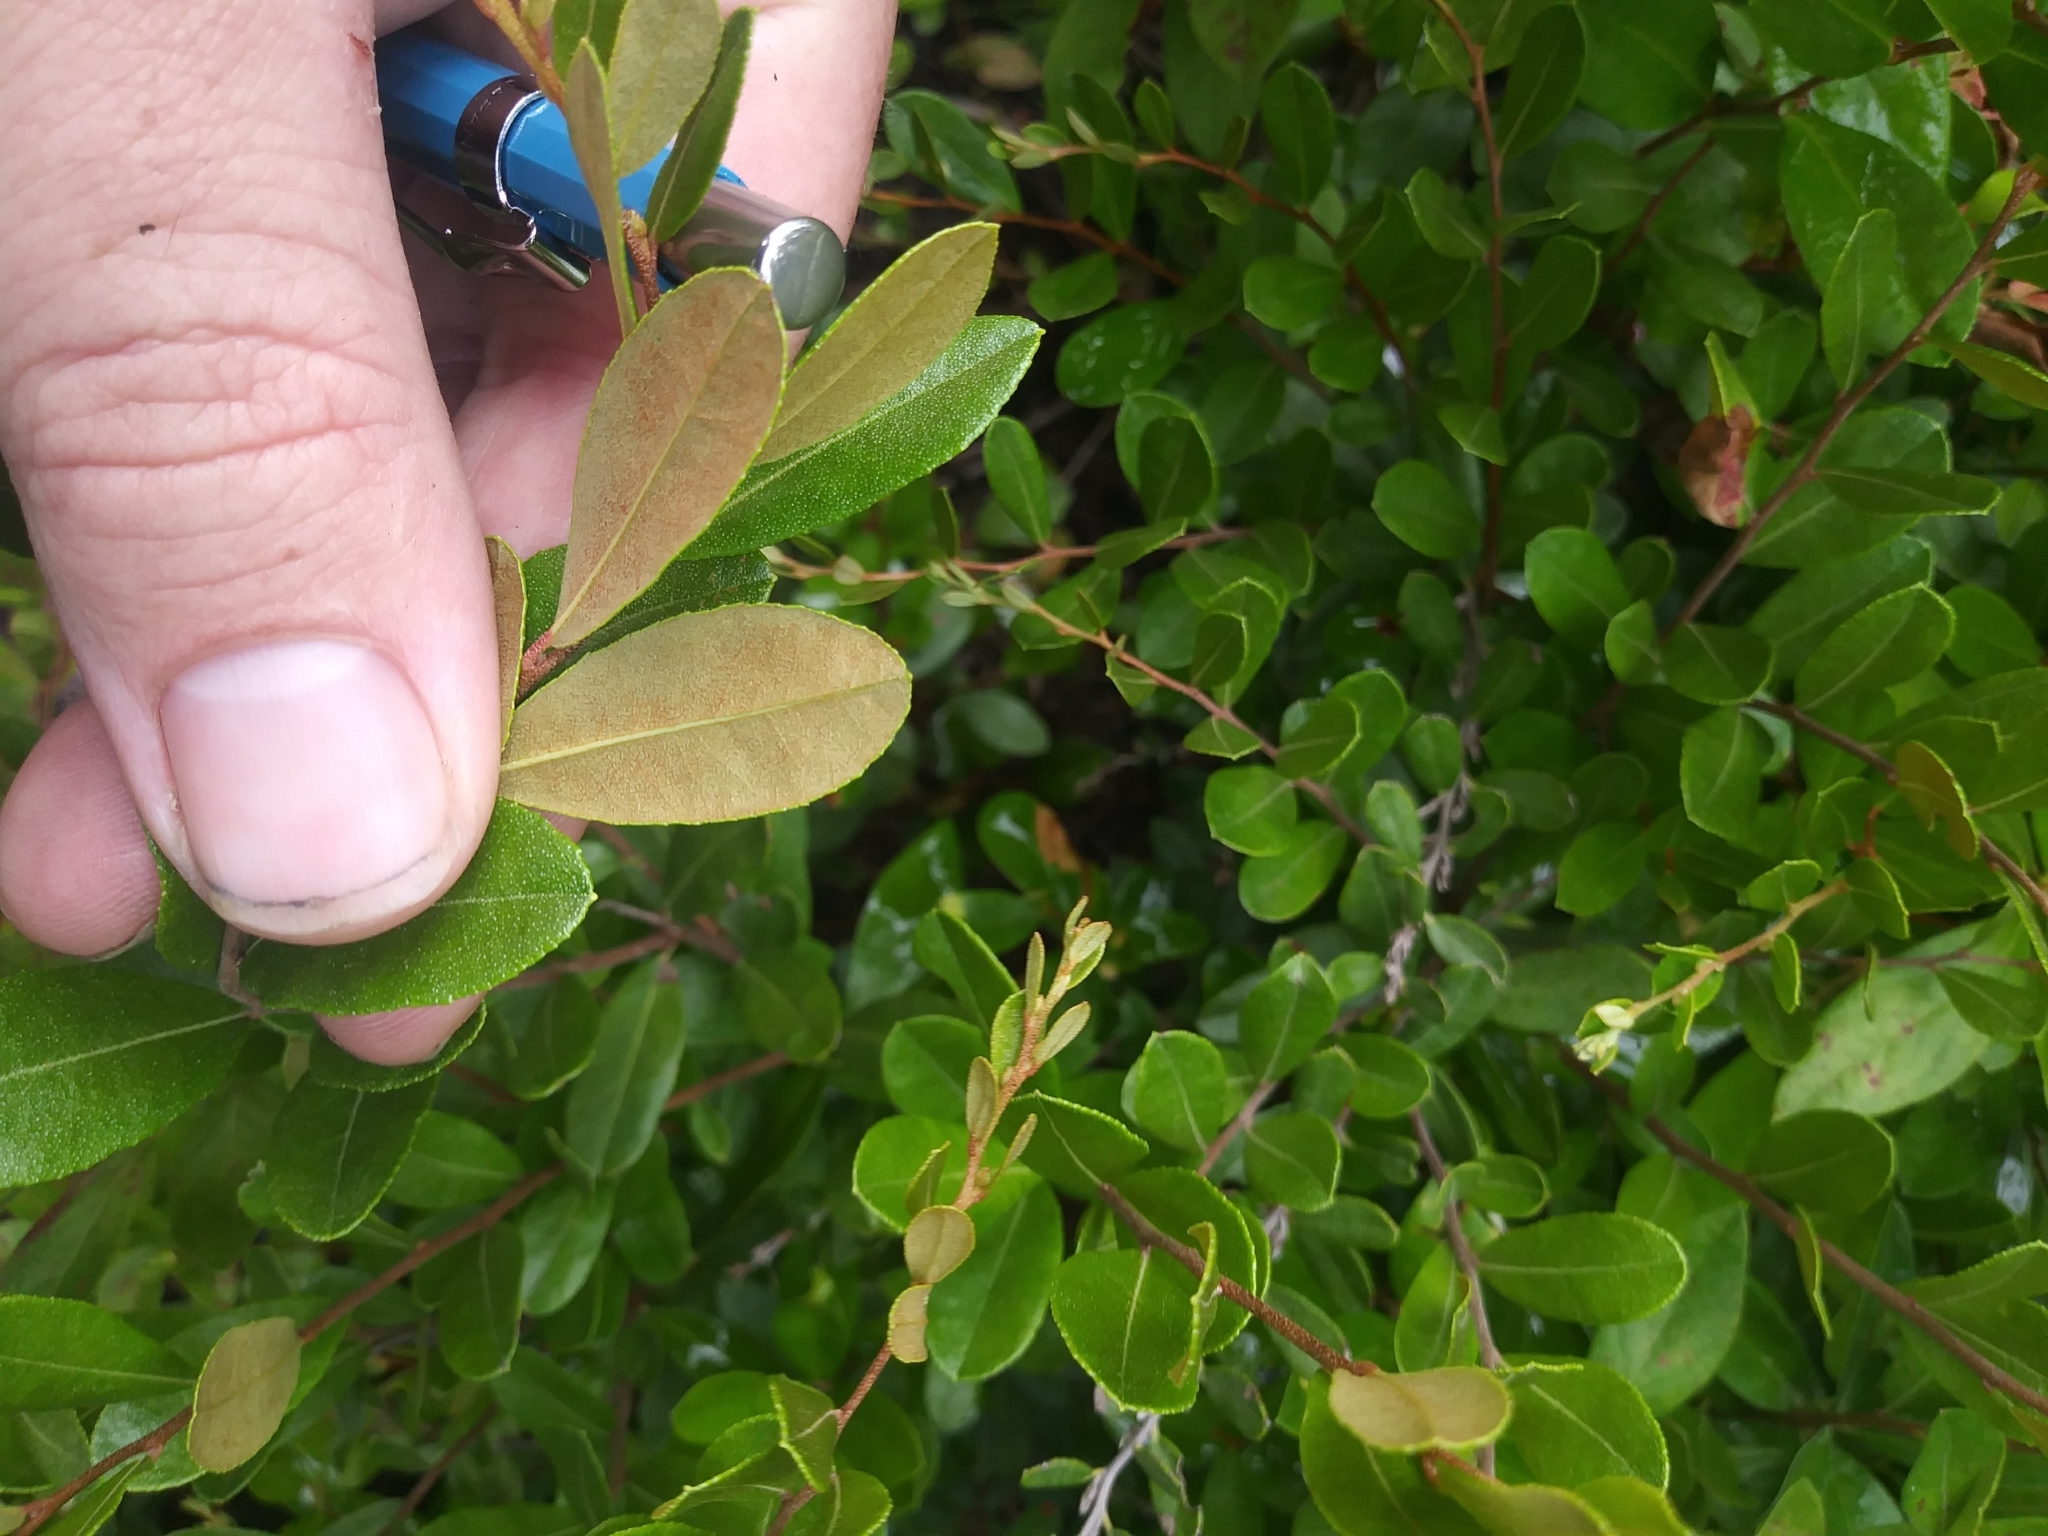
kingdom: Plantae
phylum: Tracheophyta
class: Magnoliopsida
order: Ericales
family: Ericaceae
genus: Chamaedaphne
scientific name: Chamaedaphne calyculata
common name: Leatherleaf
